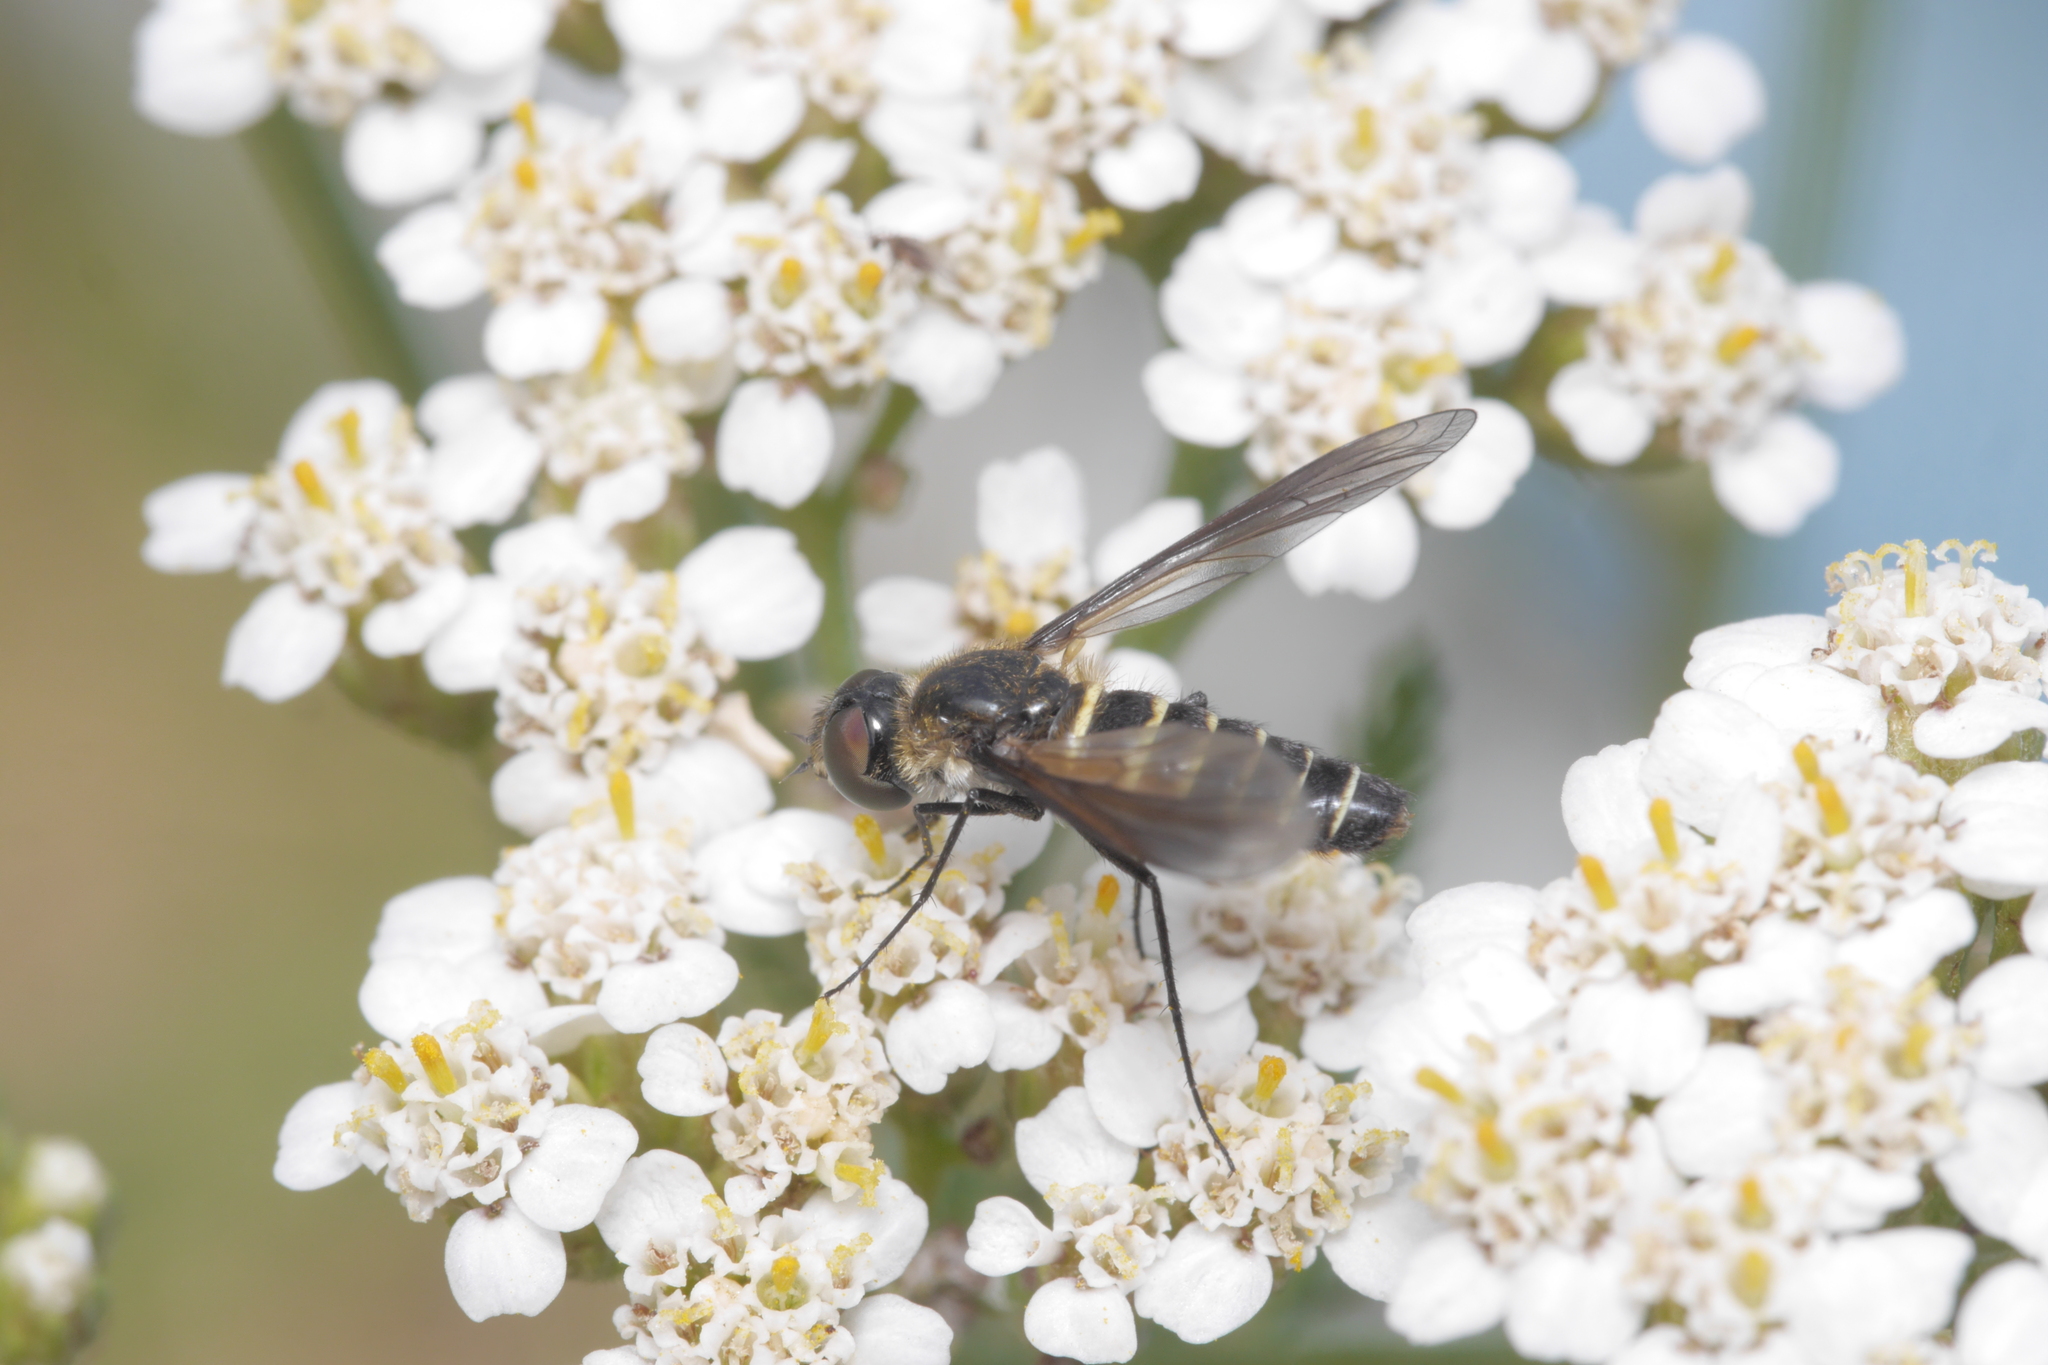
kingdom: Animalia
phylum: Arthropoda
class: Insecta
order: Diptera
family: Bombyliidae
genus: Lomatia
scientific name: Lomatia lateralis
